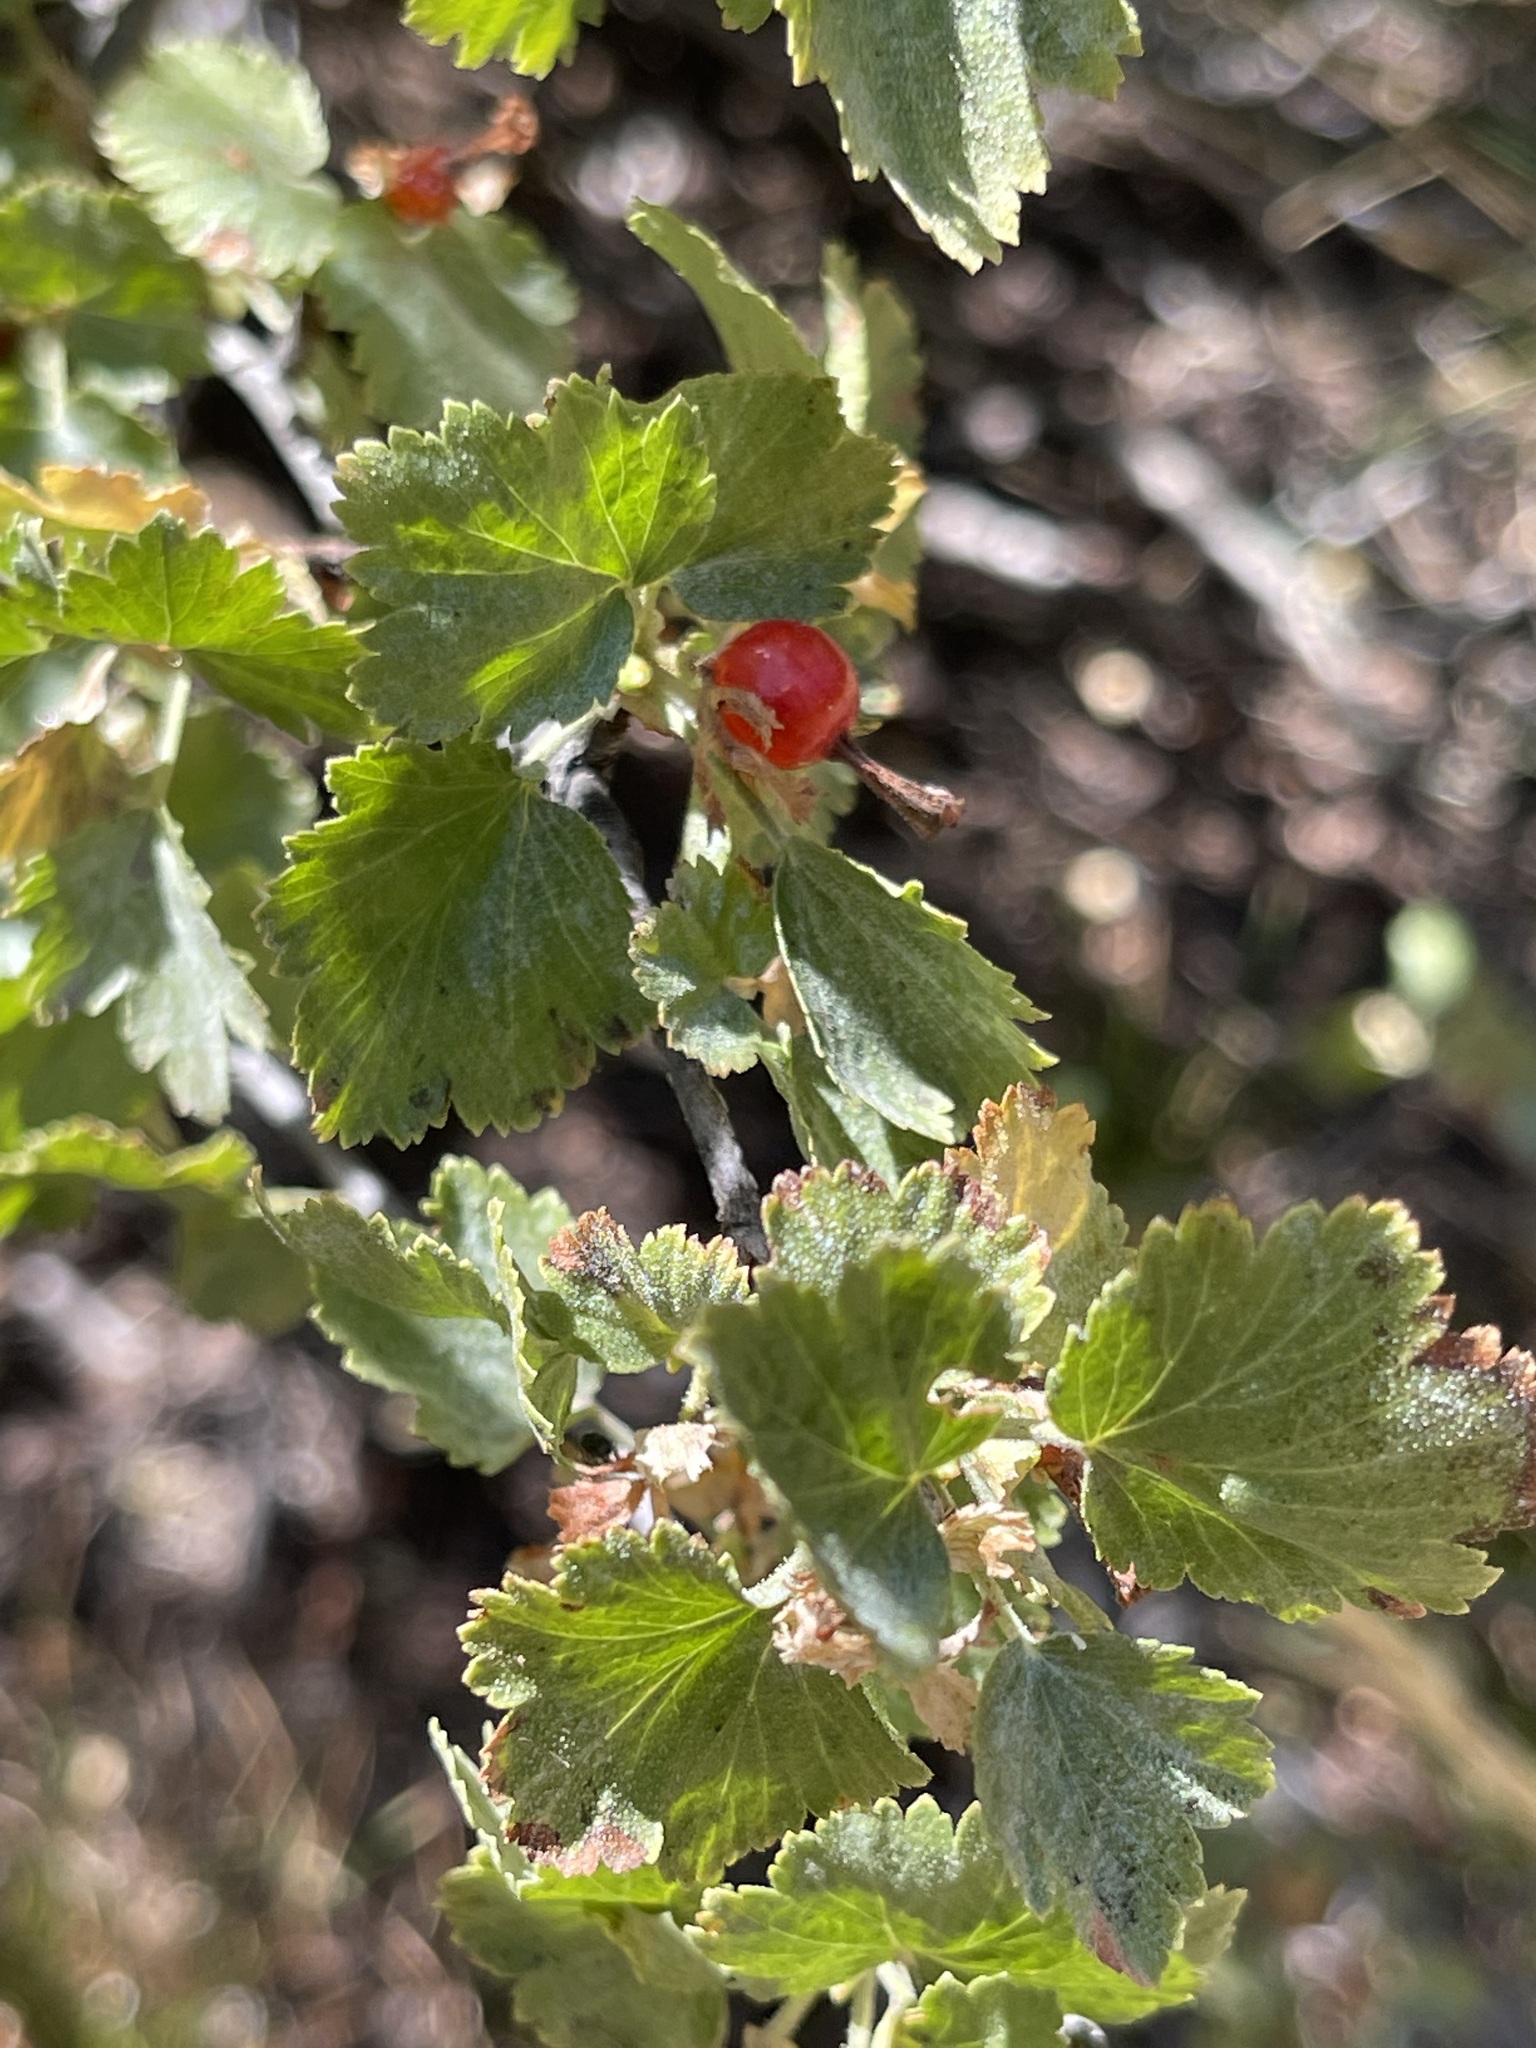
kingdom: Plantae
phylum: Tracheophyta
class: Magnoliopsida
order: Saxifragales
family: Grossulariaceae
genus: Ribes
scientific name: Ribes cereum
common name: Wax currant
